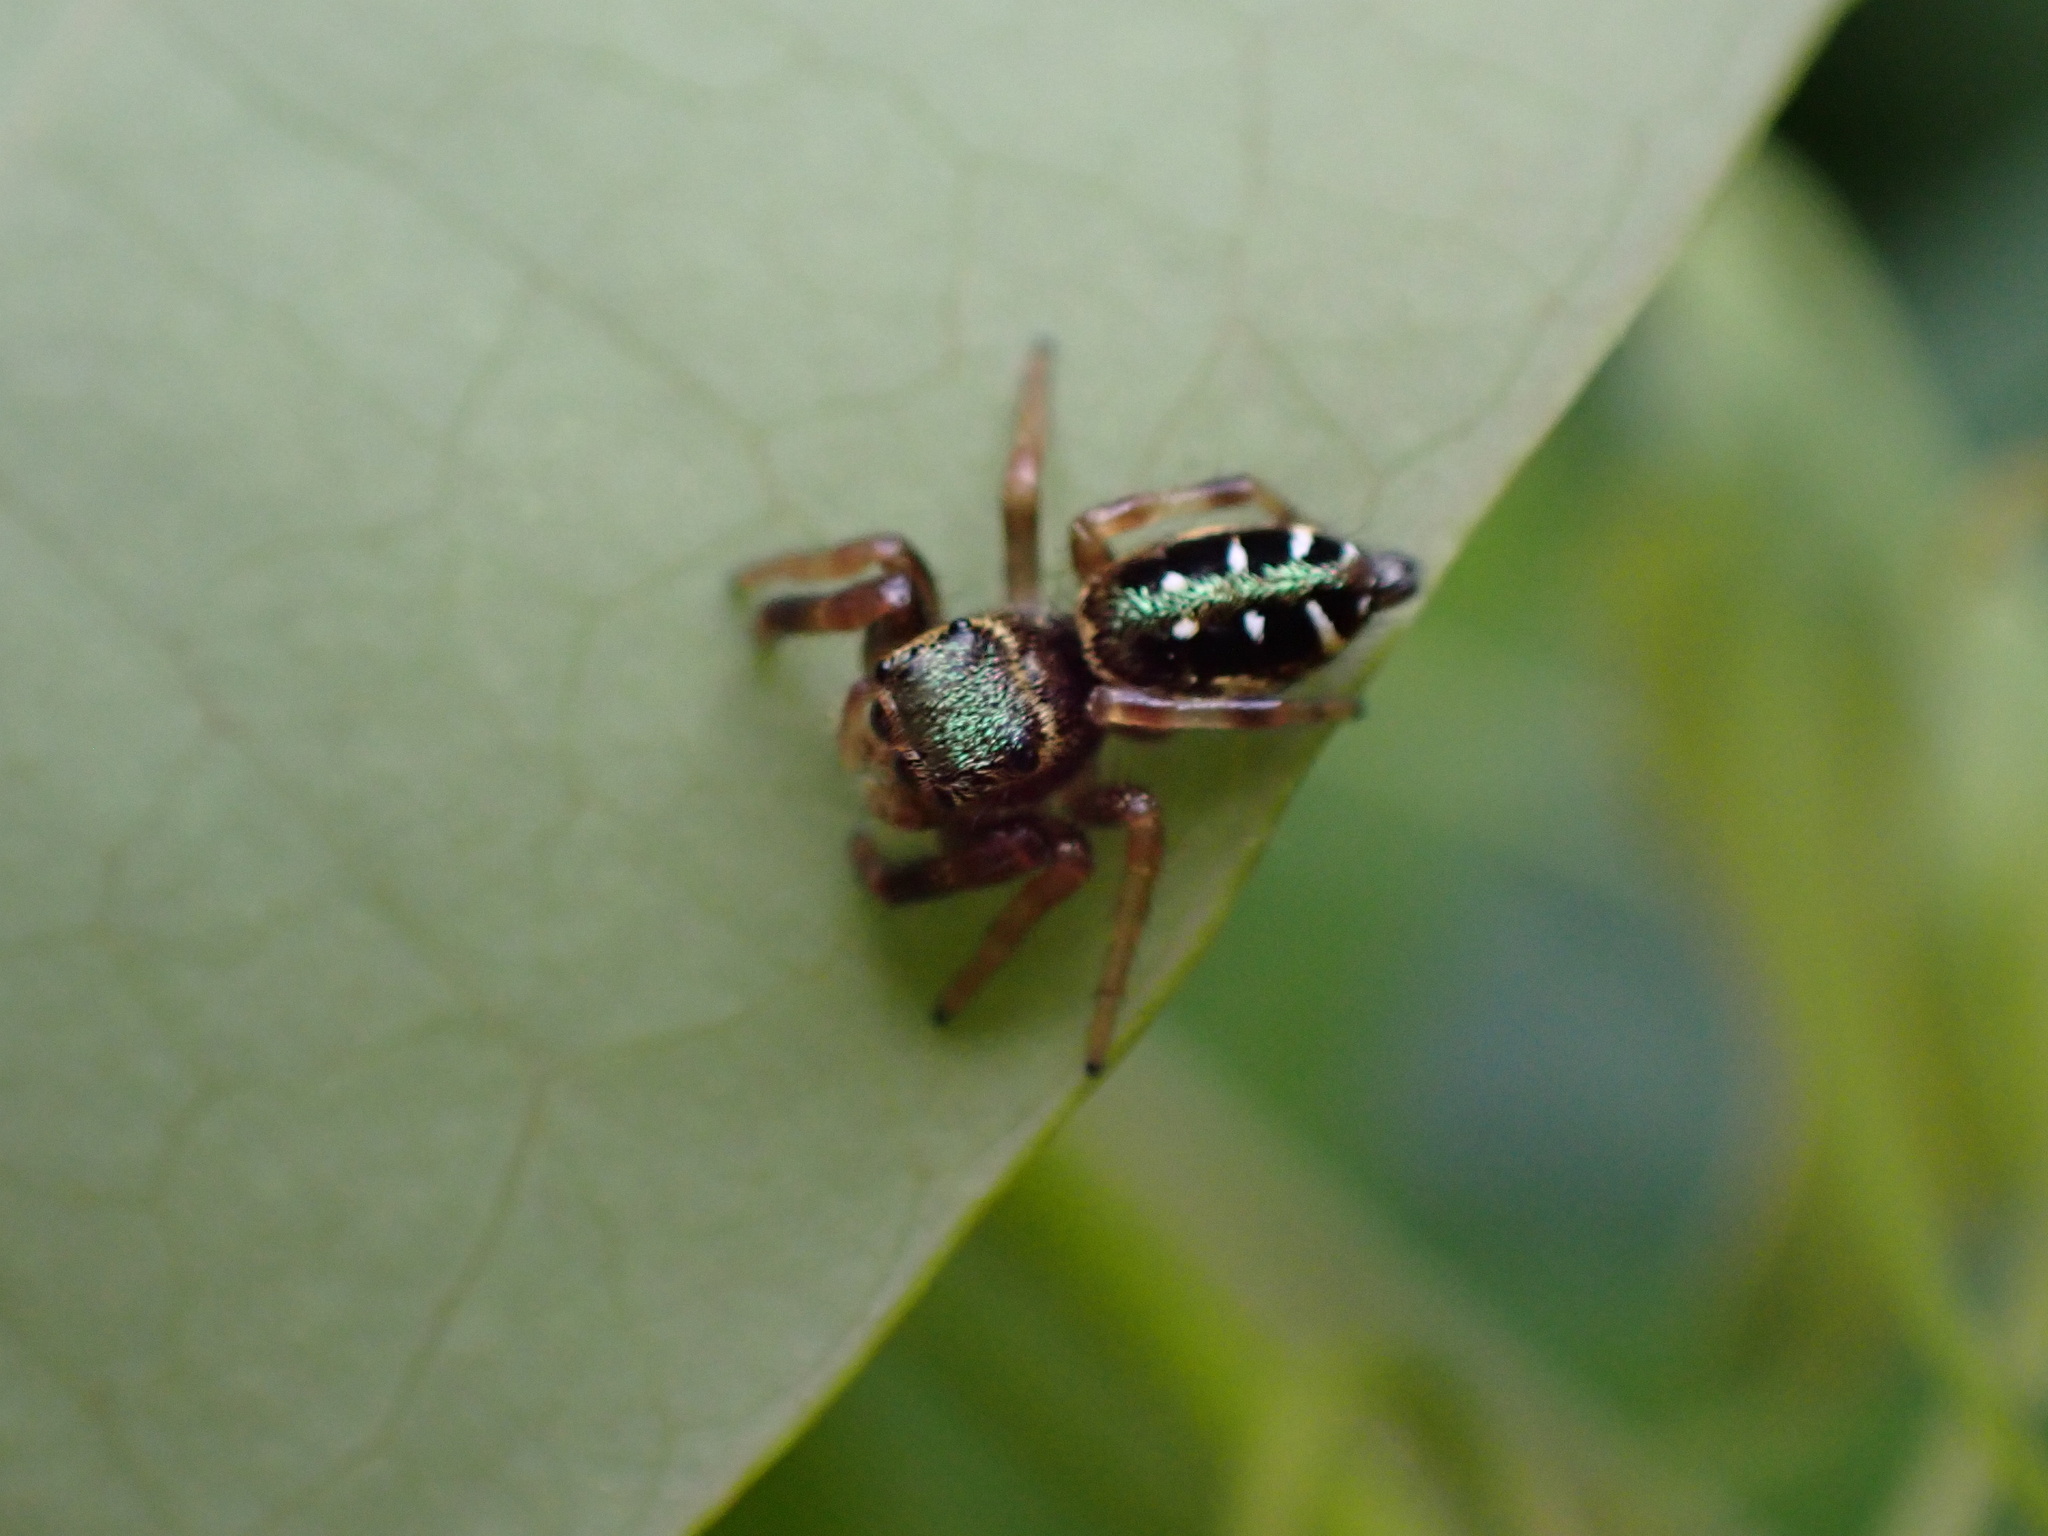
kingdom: Animalia
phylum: Arthropoda
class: Arachnida
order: Araneae
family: Salticidae
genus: Paraphidippus
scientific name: Paraphidippus aurantius
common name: Jumping spiders
